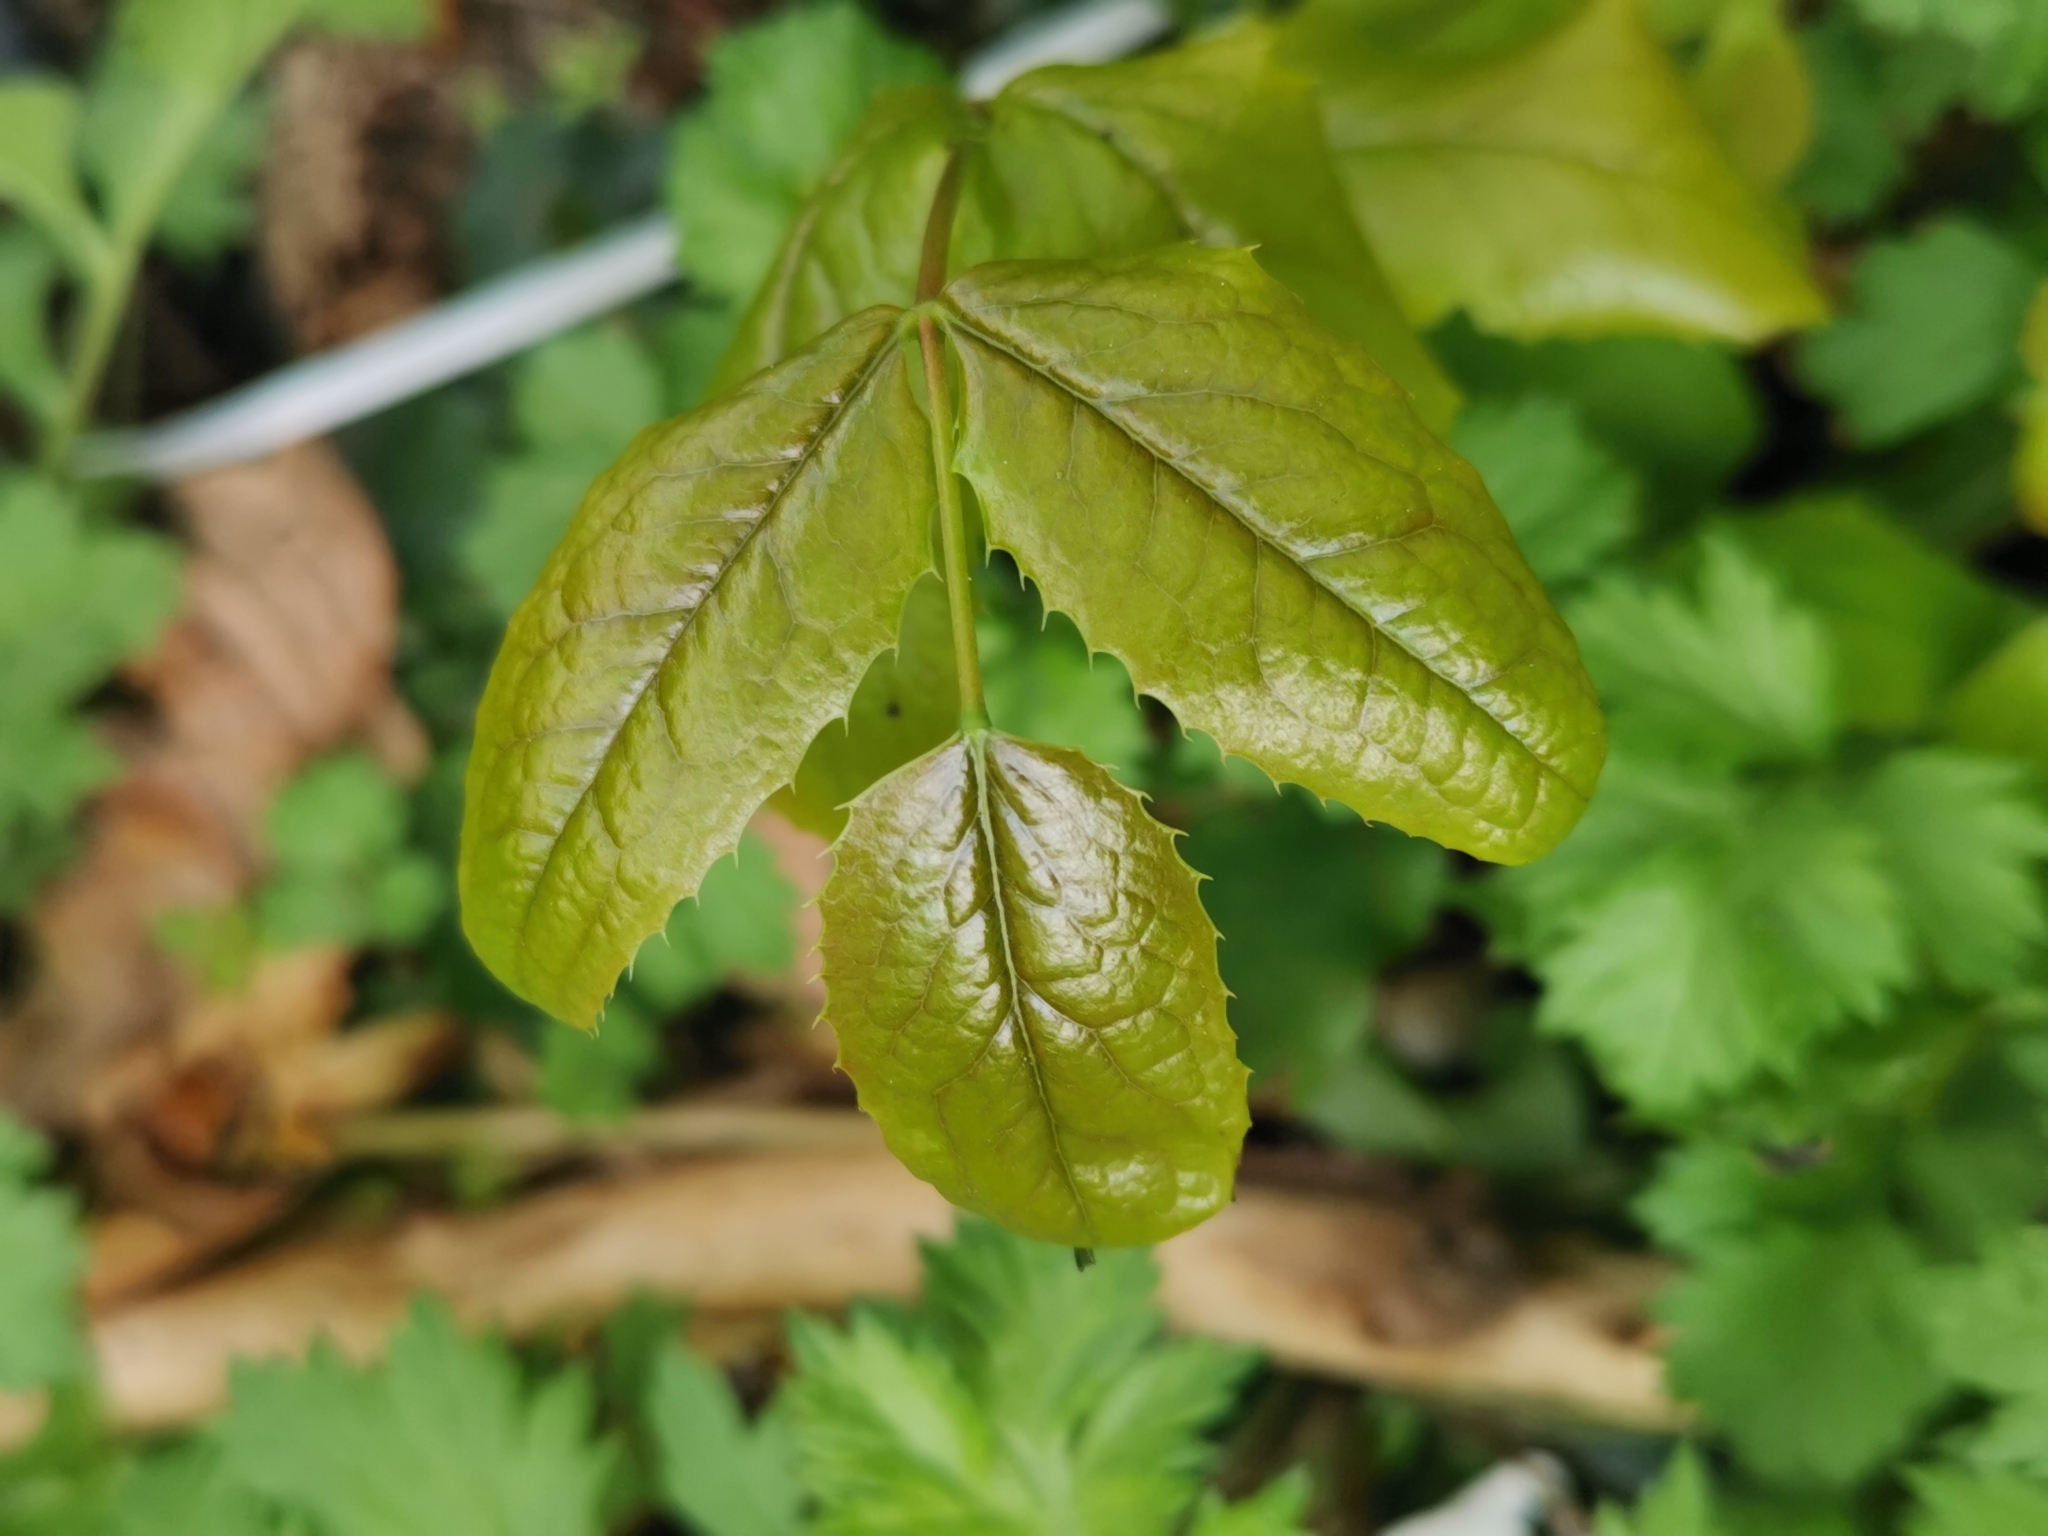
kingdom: Plantae
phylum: Tracheophyta
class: Magnoliopsida
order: Ranunculales
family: Berberidaceae
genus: Mahonia
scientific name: Mahonia aquifolium
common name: Oregon-grape
